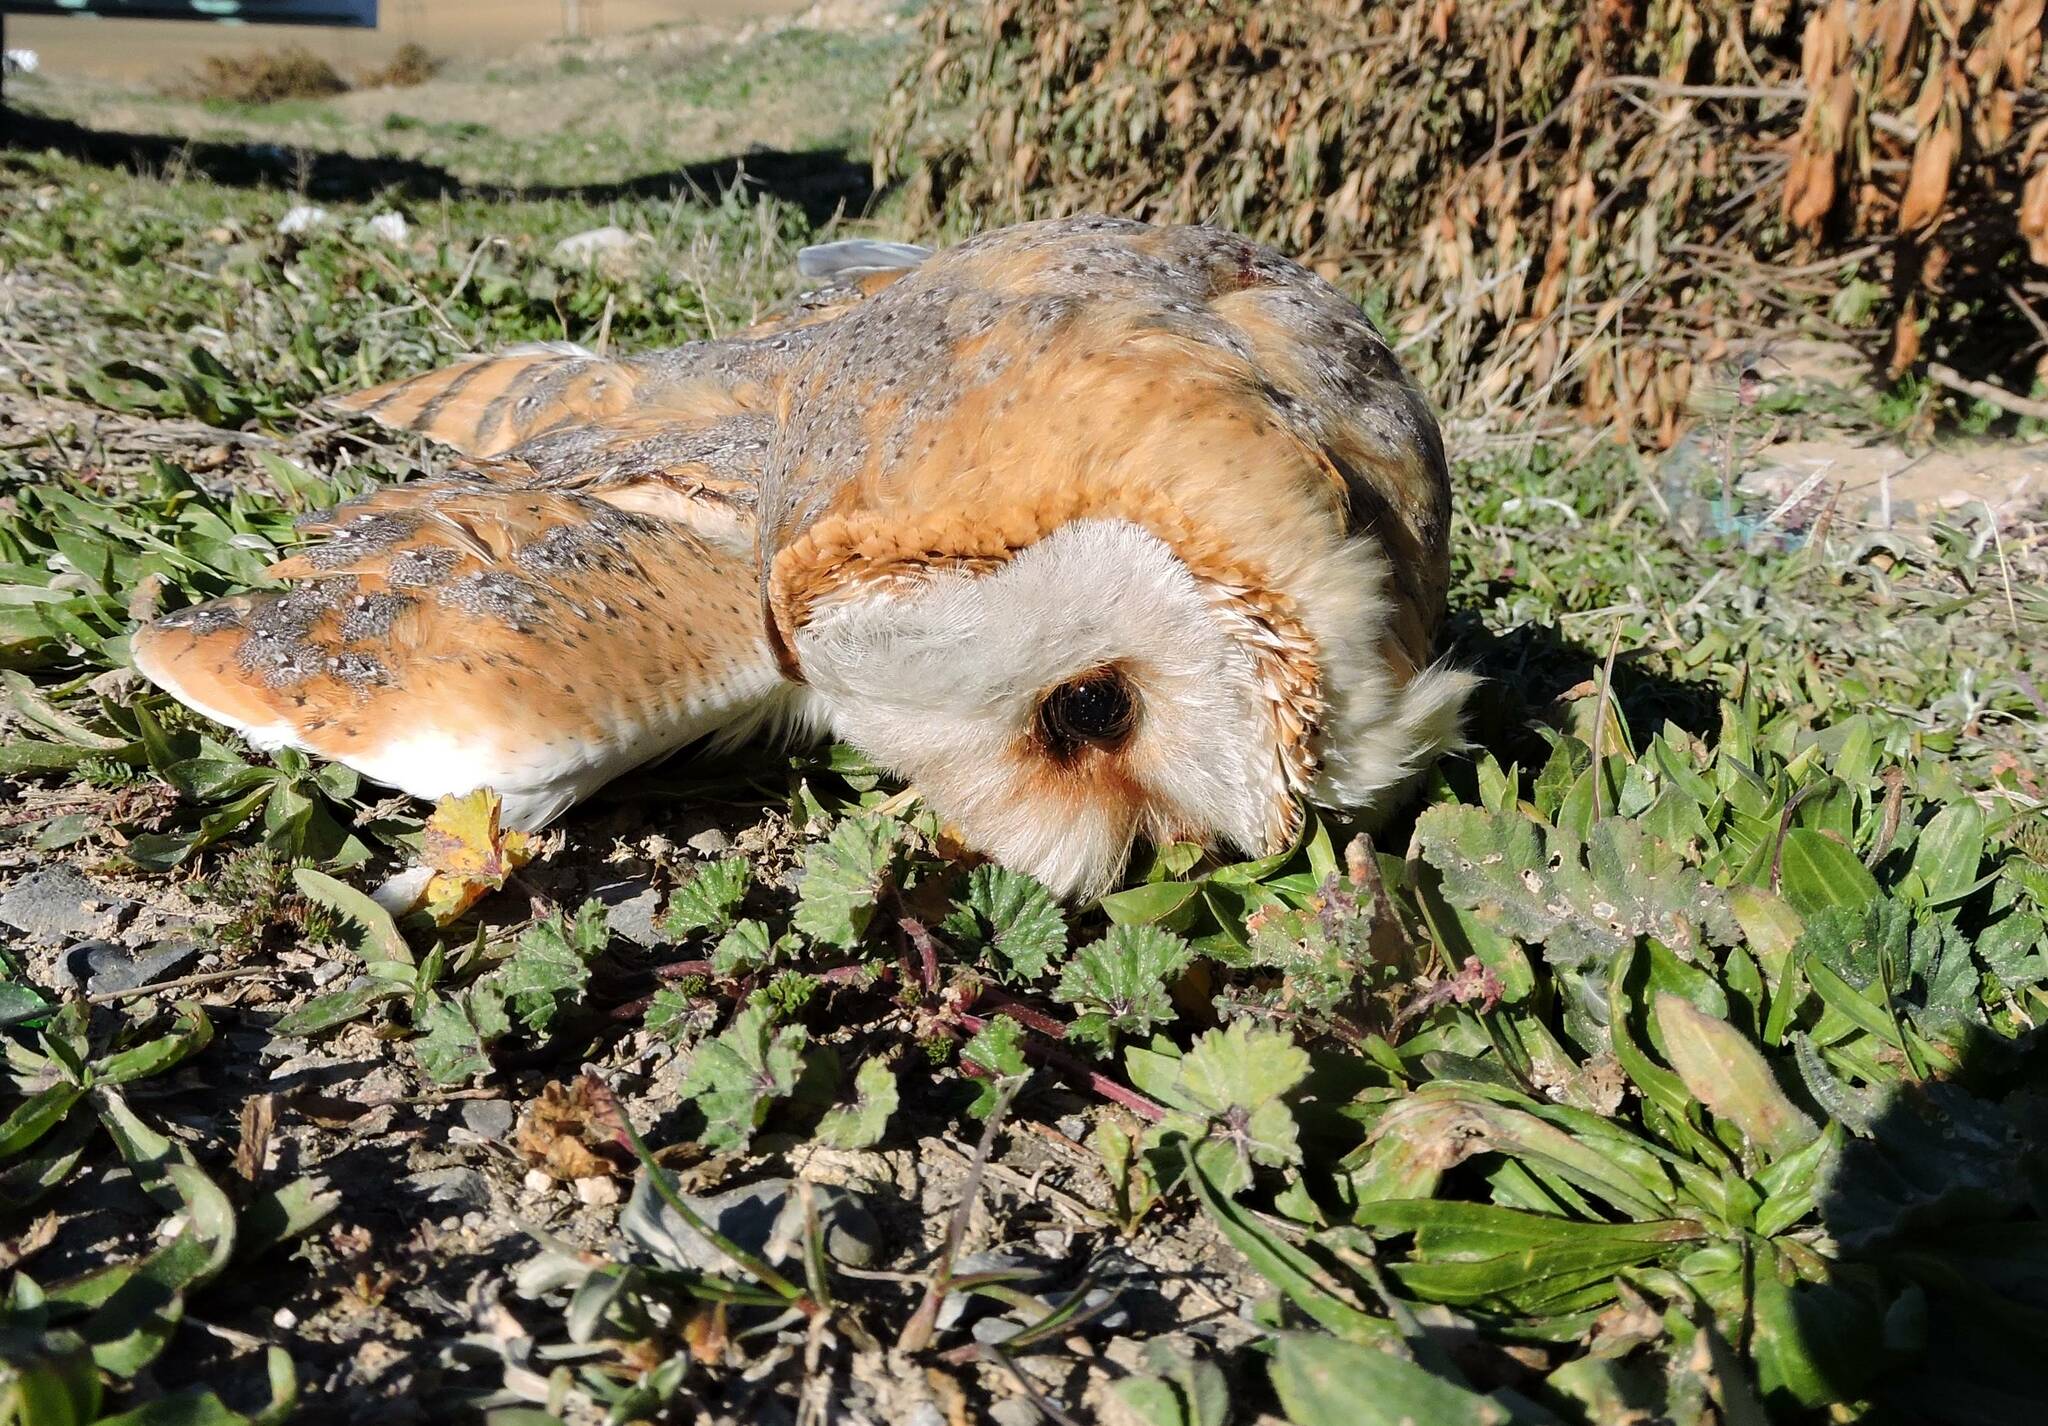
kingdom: Animalia
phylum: Chordata
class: Aves
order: Strigiformes
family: Tytonidae
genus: Tyto
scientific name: Tyto alba
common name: Barn owl
